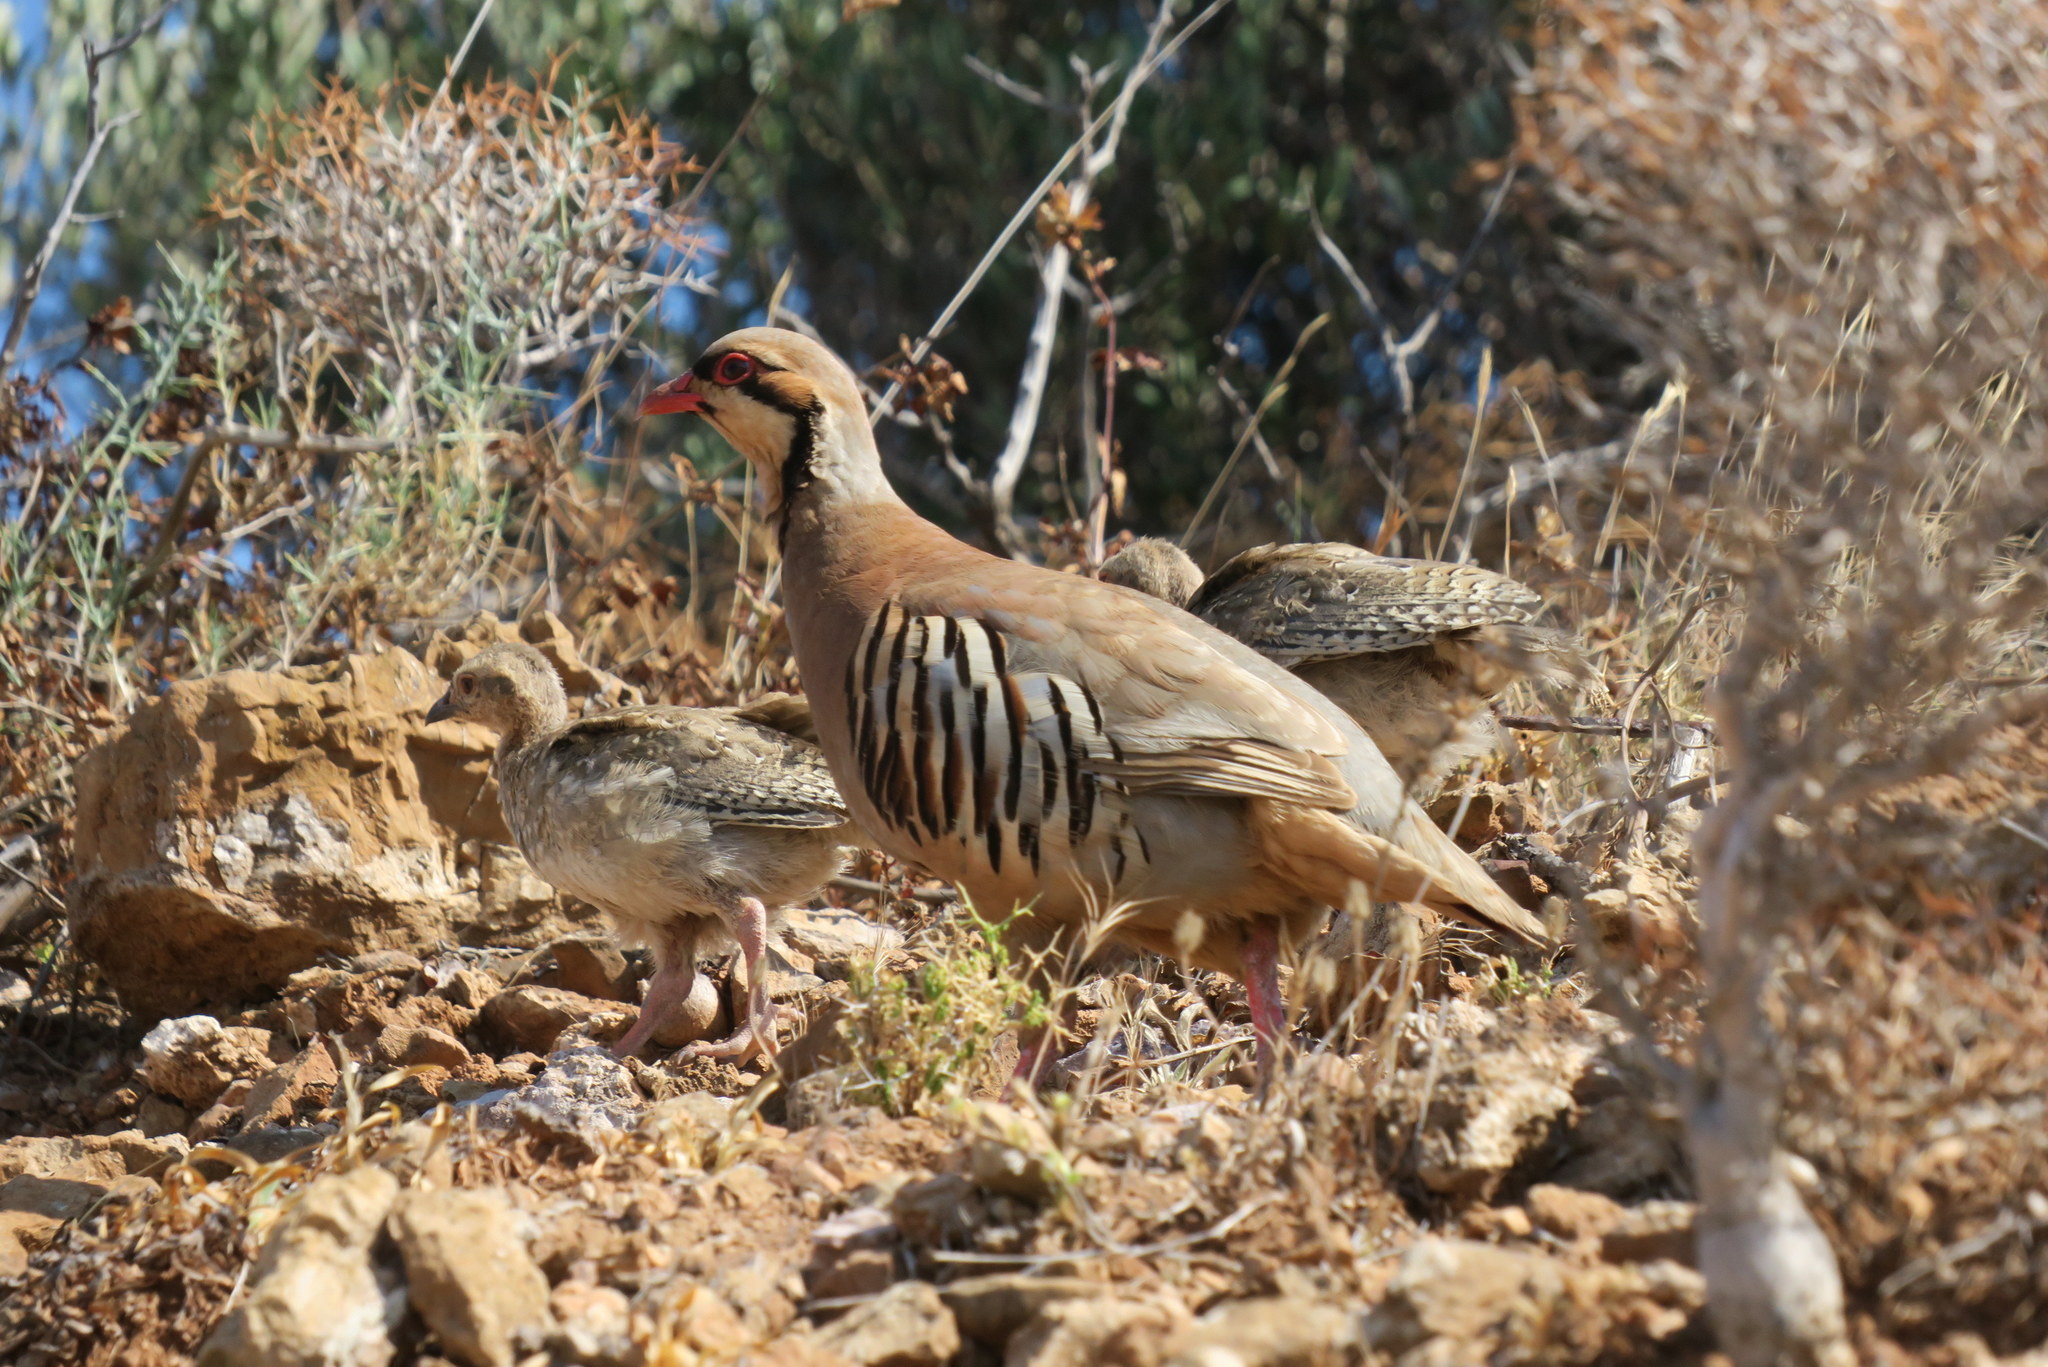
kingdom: Animalia
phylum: Chordata
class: Aves
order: Galliformes
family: Phasianidae
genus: Alectoris
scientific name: Alectoris chukar
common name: Chukar
